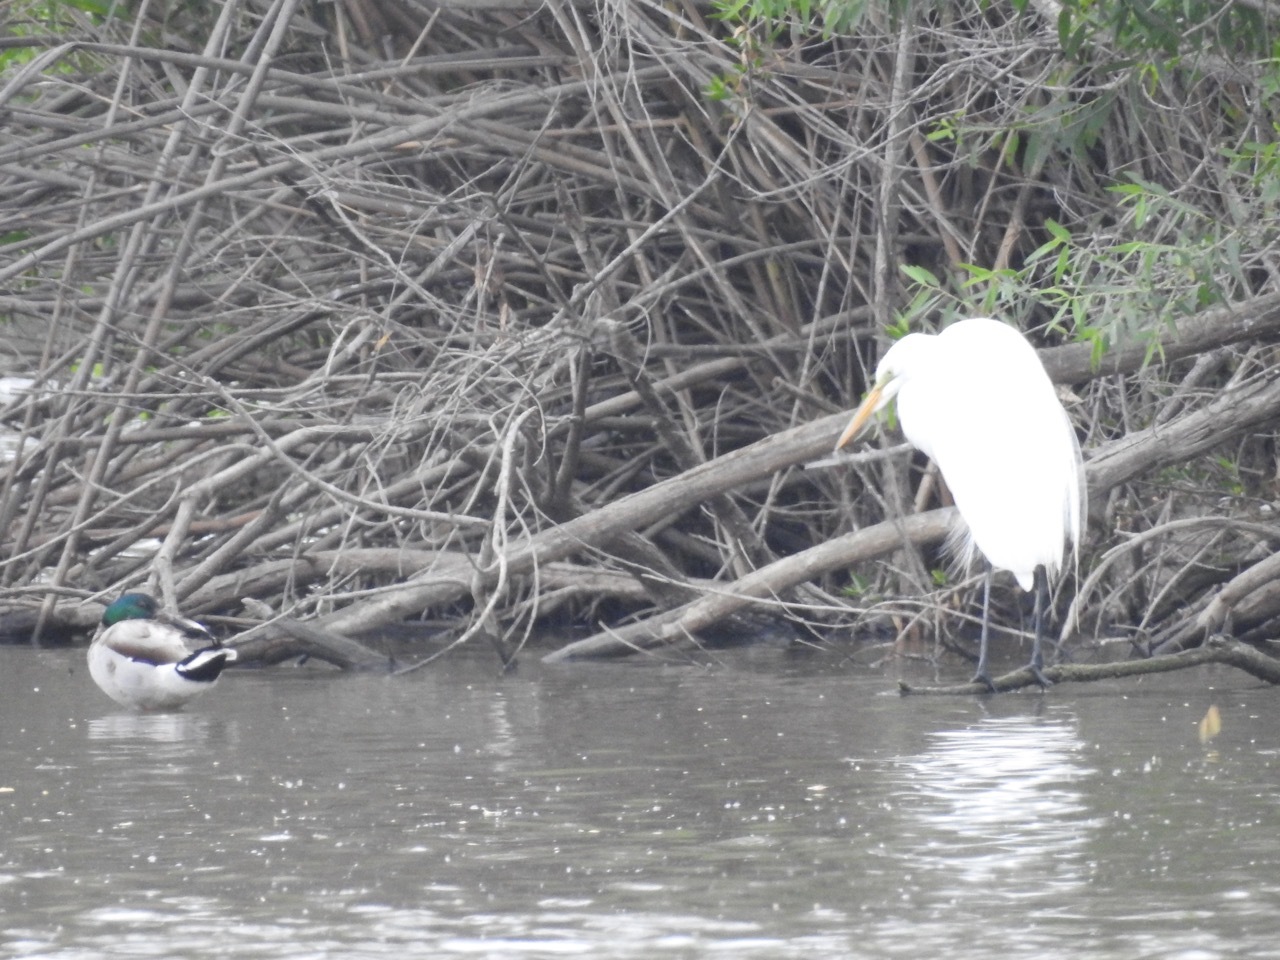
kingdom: Animalia
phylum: Chordata
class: Aves
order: Pelecaniformes
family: Ardeidae
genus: Ardea
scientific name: Ardea alba
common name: Great egret
